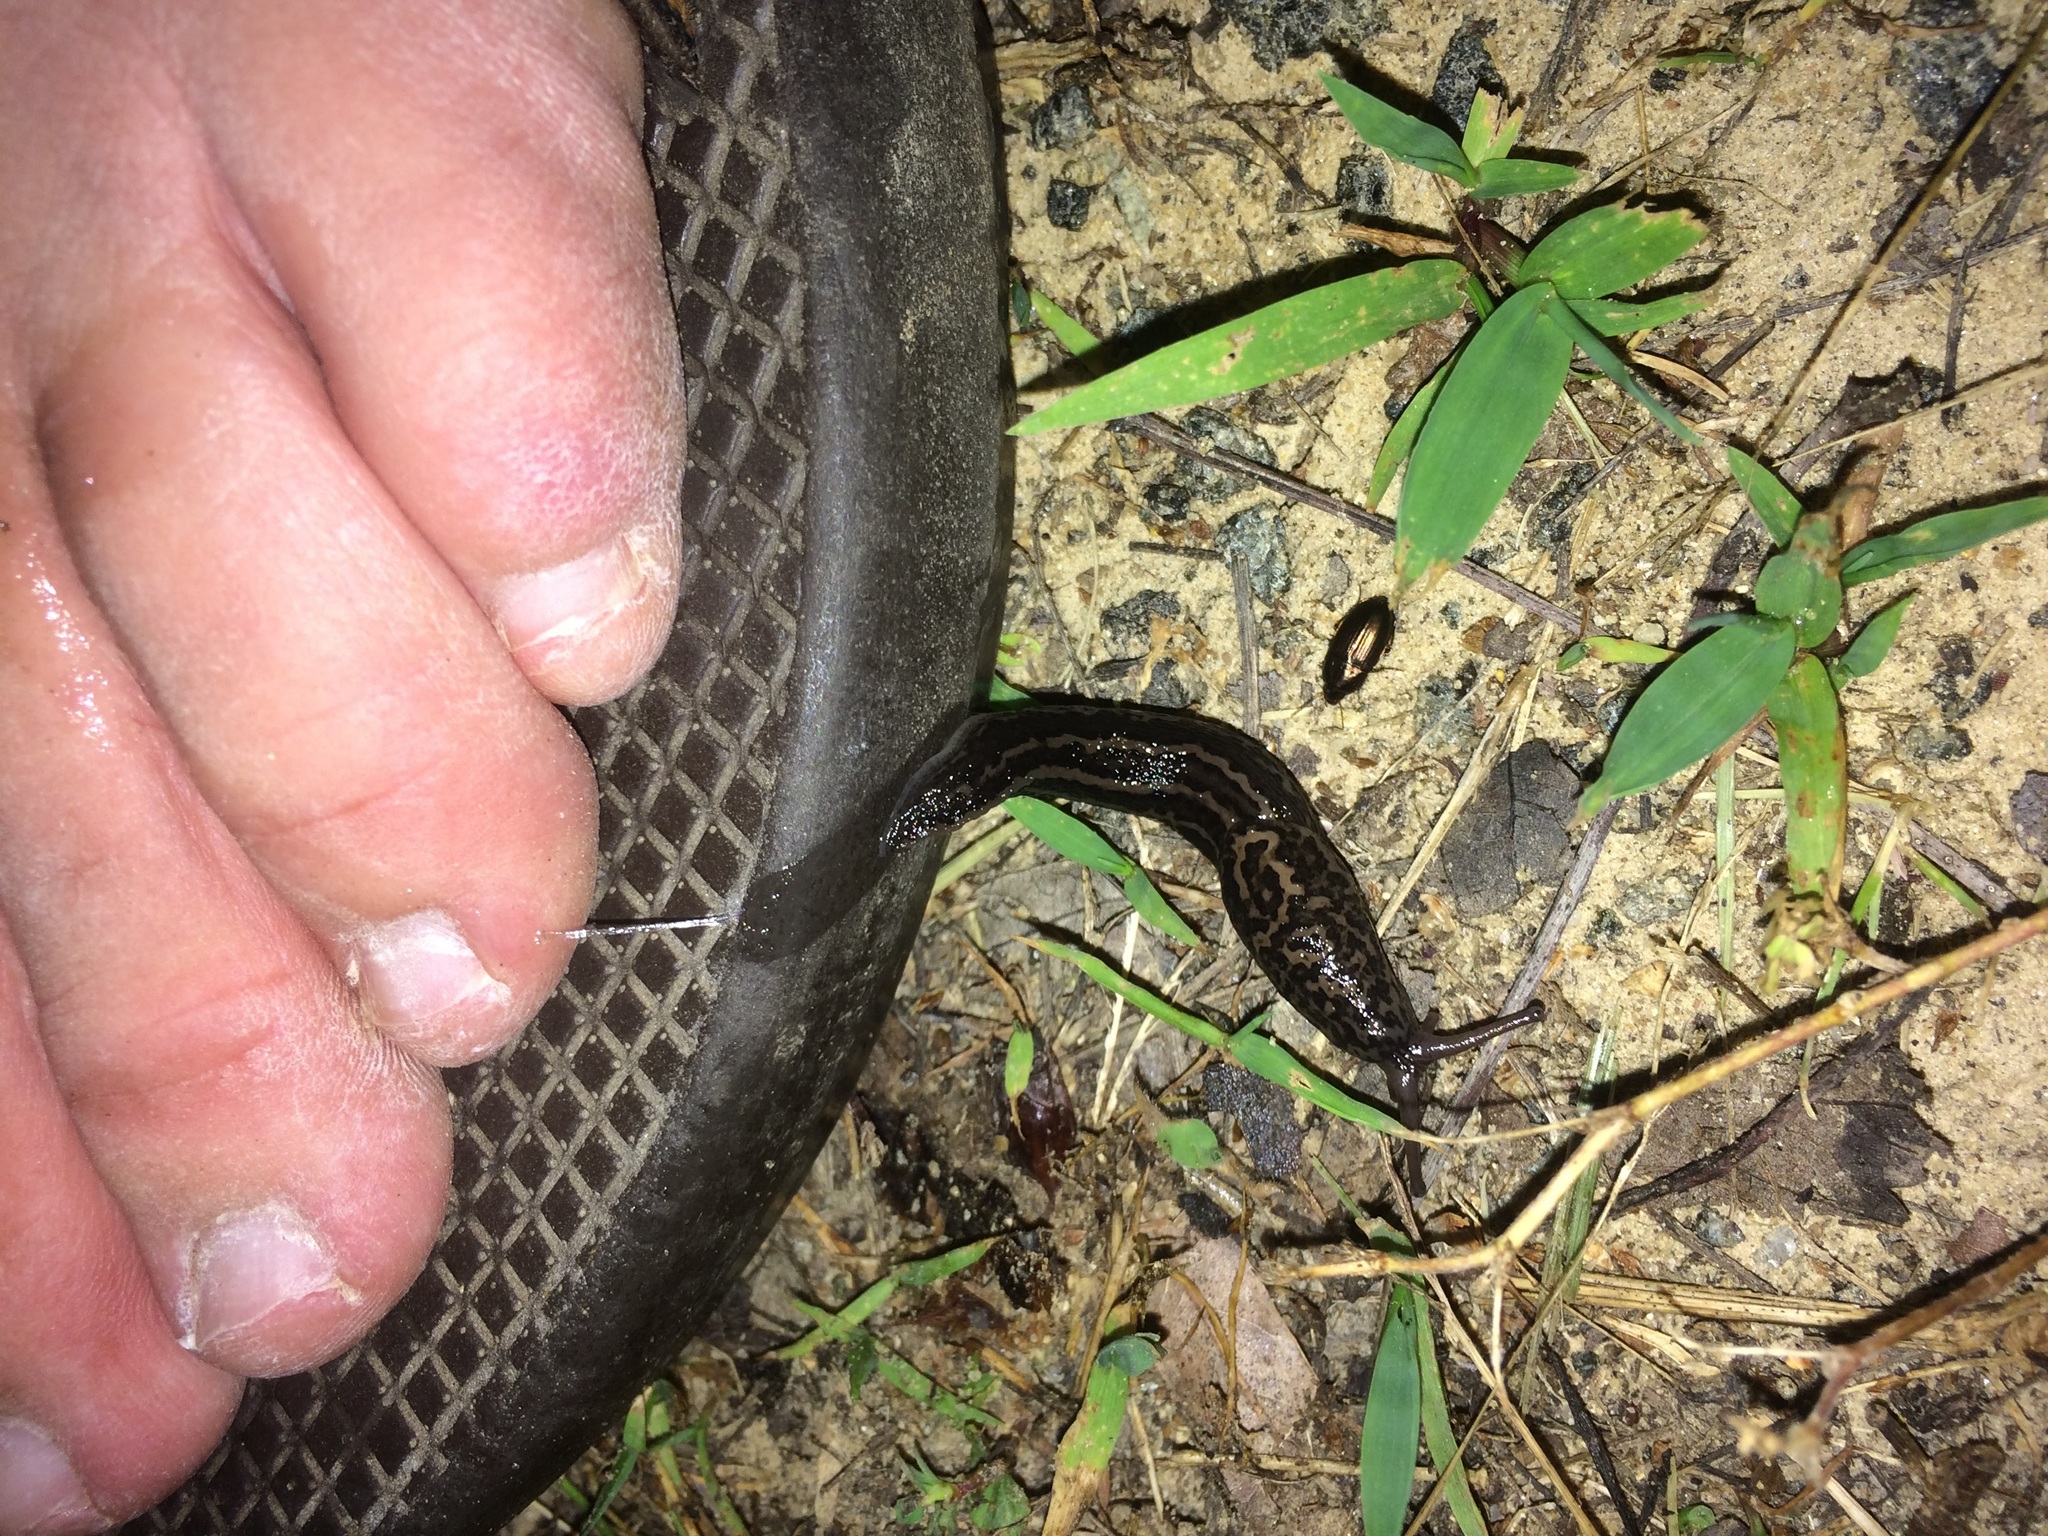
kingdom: Animalia
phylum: Mollusca
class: Gastropoda
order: Stylommatophora
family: Limacidae
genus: Limax
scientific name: Limax maximus
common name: Great grey slug
